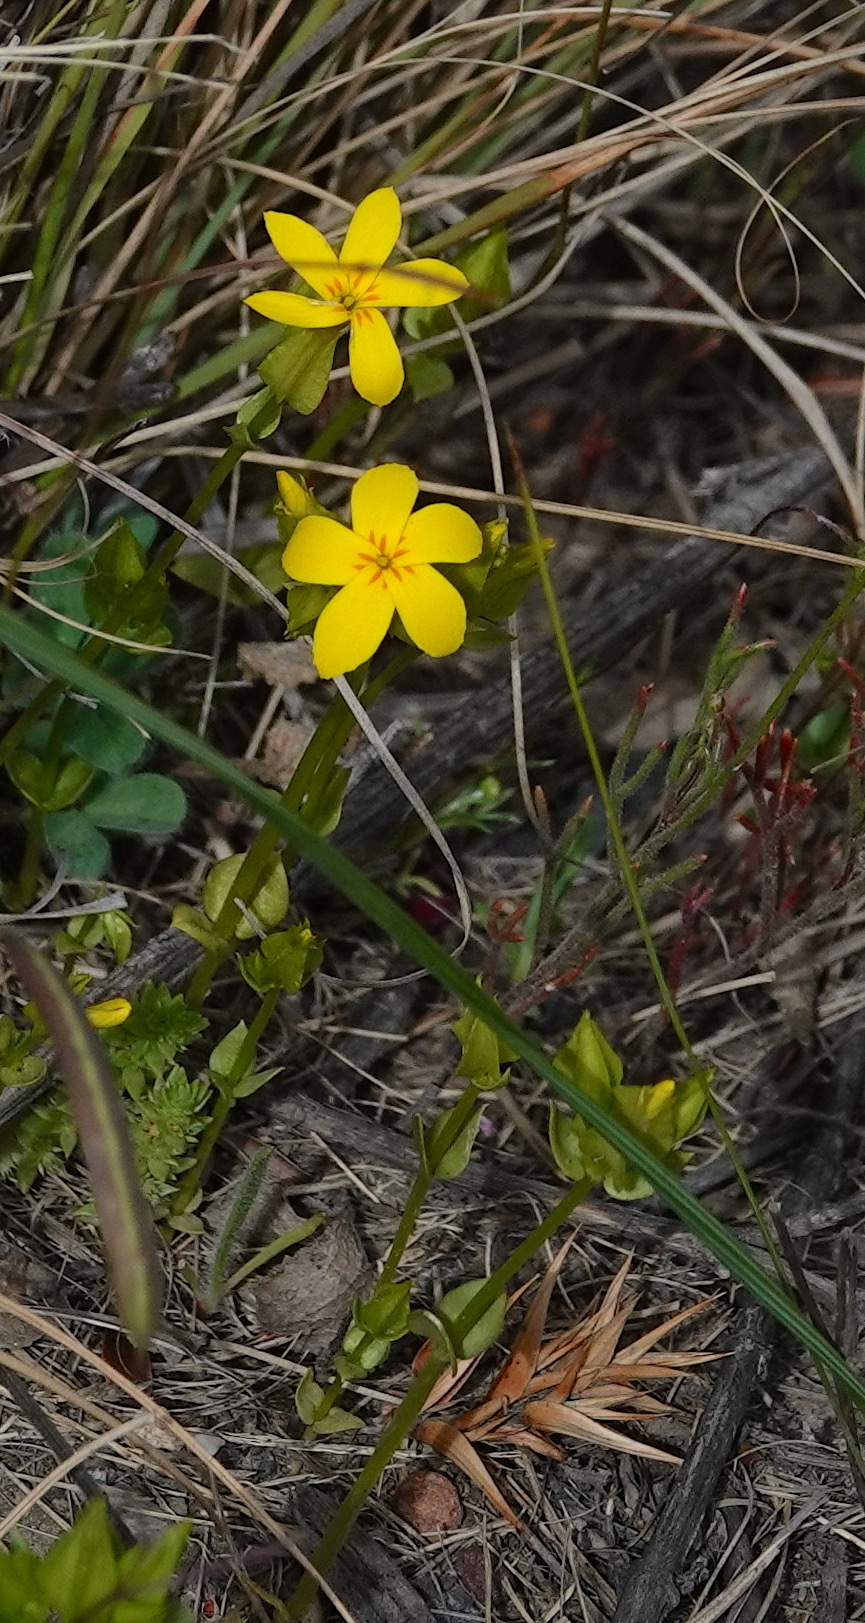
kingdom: Plantae
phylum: Tracheophyta
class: Magnoliopsida
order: Gentianales
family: Gentianaceae
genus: Sebaea
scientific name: Sebaea exacoides
